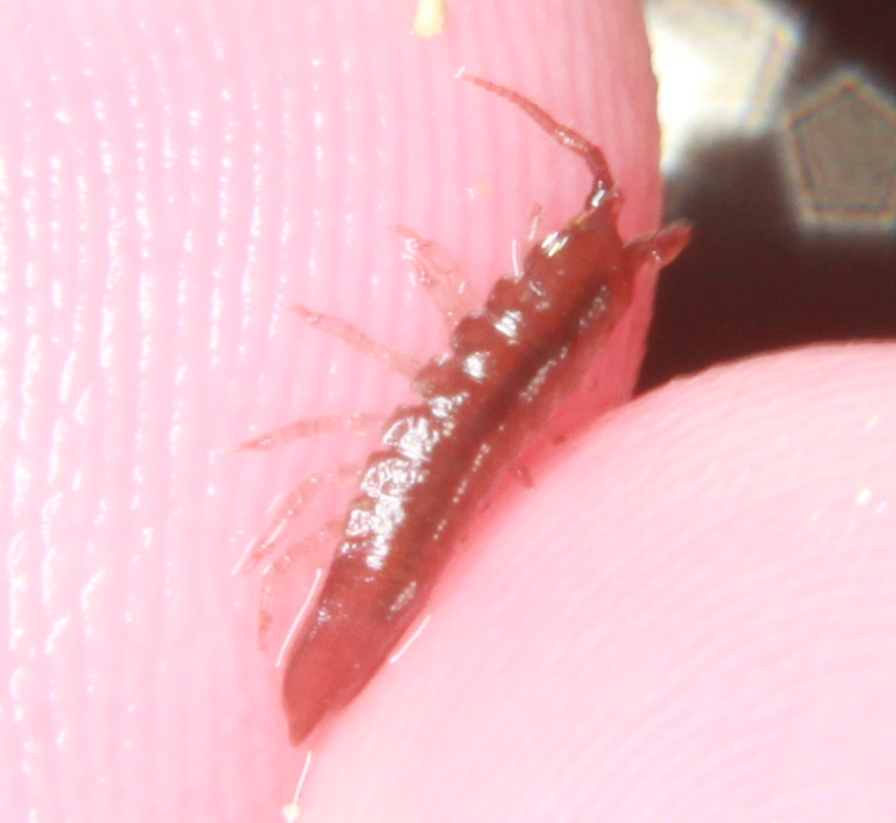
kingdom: Animalia
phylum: Arthropoda
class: Malacostraca
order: Isopoda
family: Idoteidae
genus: Idotea
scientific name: Idotea granulosa
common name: Granular marine isopod
